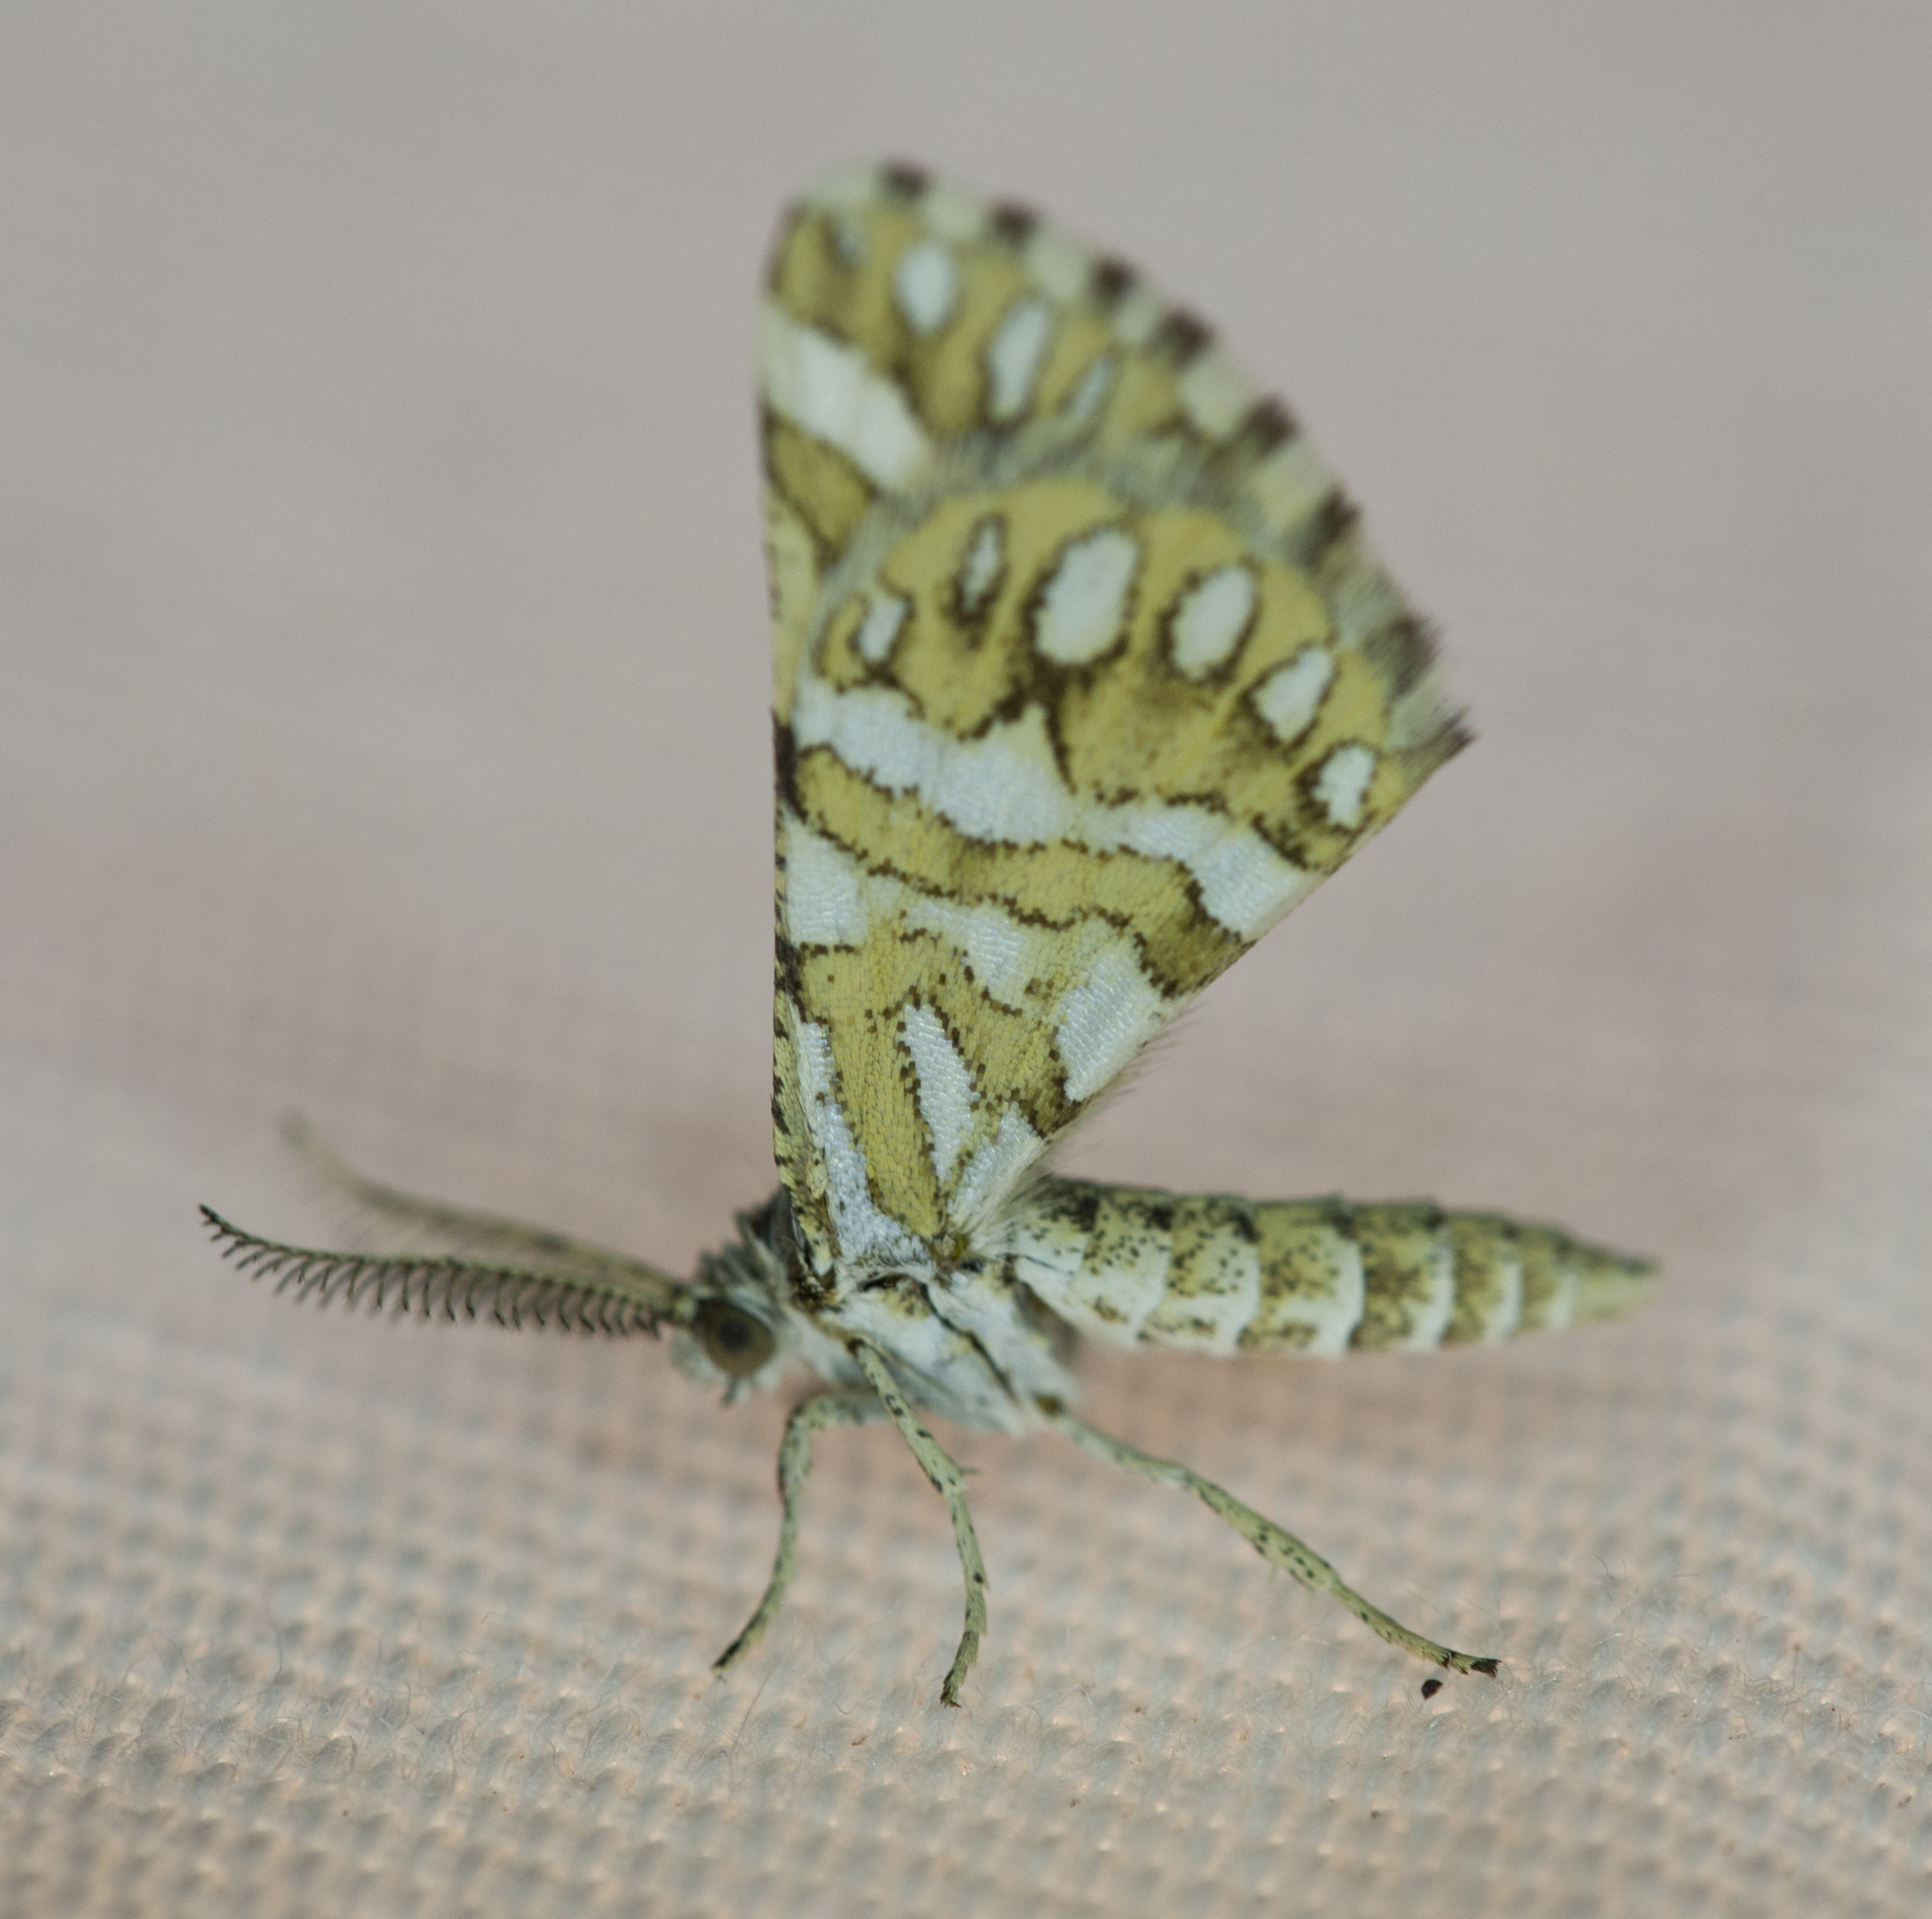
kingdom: Animalia
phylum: Arthropoda
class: Insecta
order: Lepidoptera
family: Geometridae
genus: Narraga
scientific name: Narraga fimetaria
